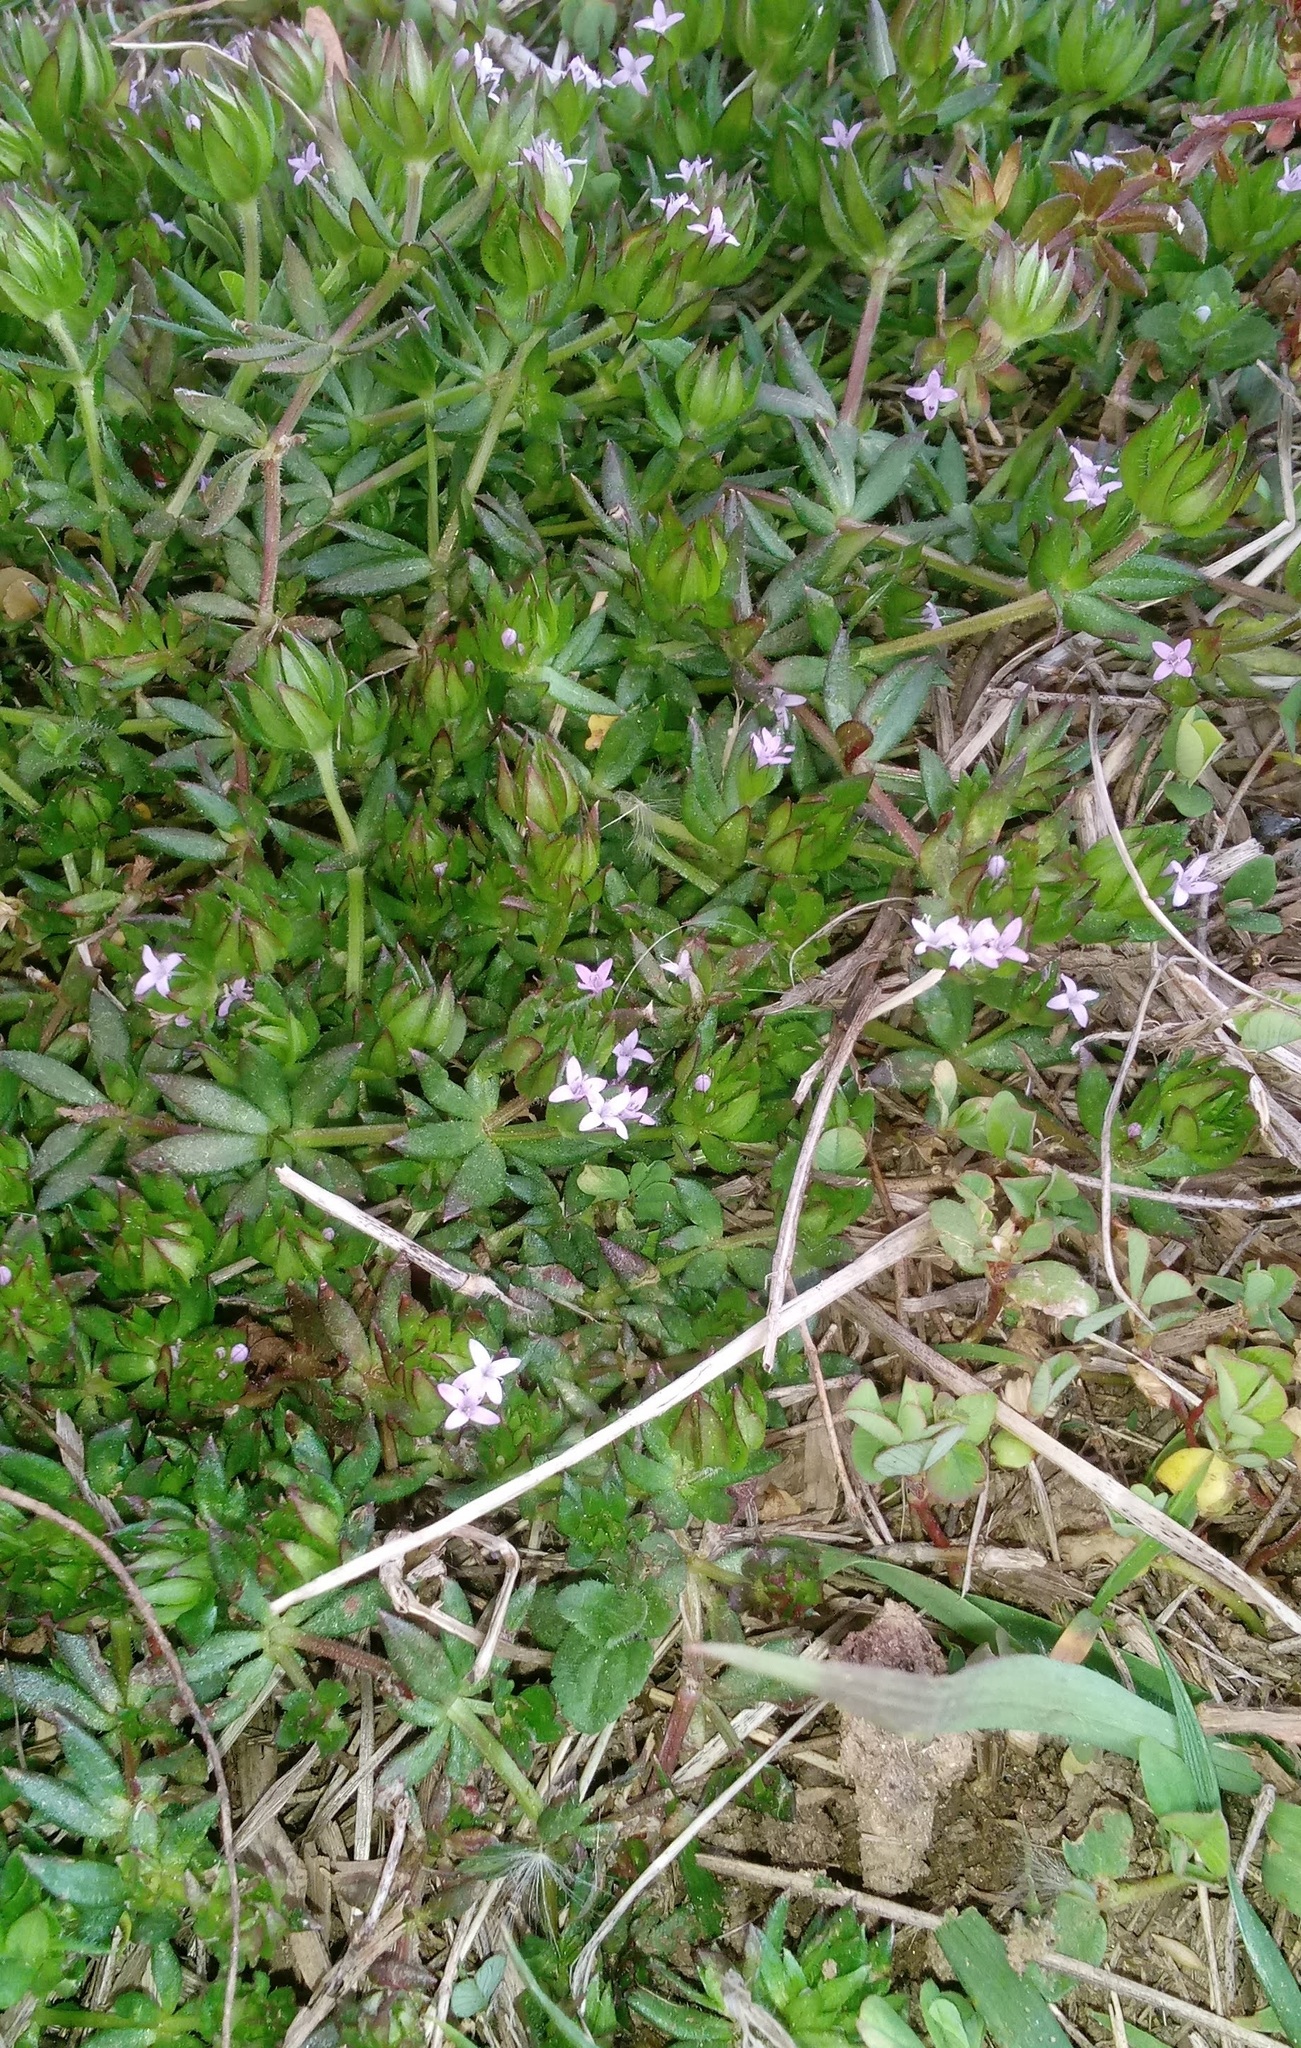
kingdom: Plantae
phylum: Tracheophyta
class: Magnoliopsida
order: Gentianales
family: Rubiaceae
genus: Sherardia
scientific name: Sherardia arvensis
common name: Field madder
